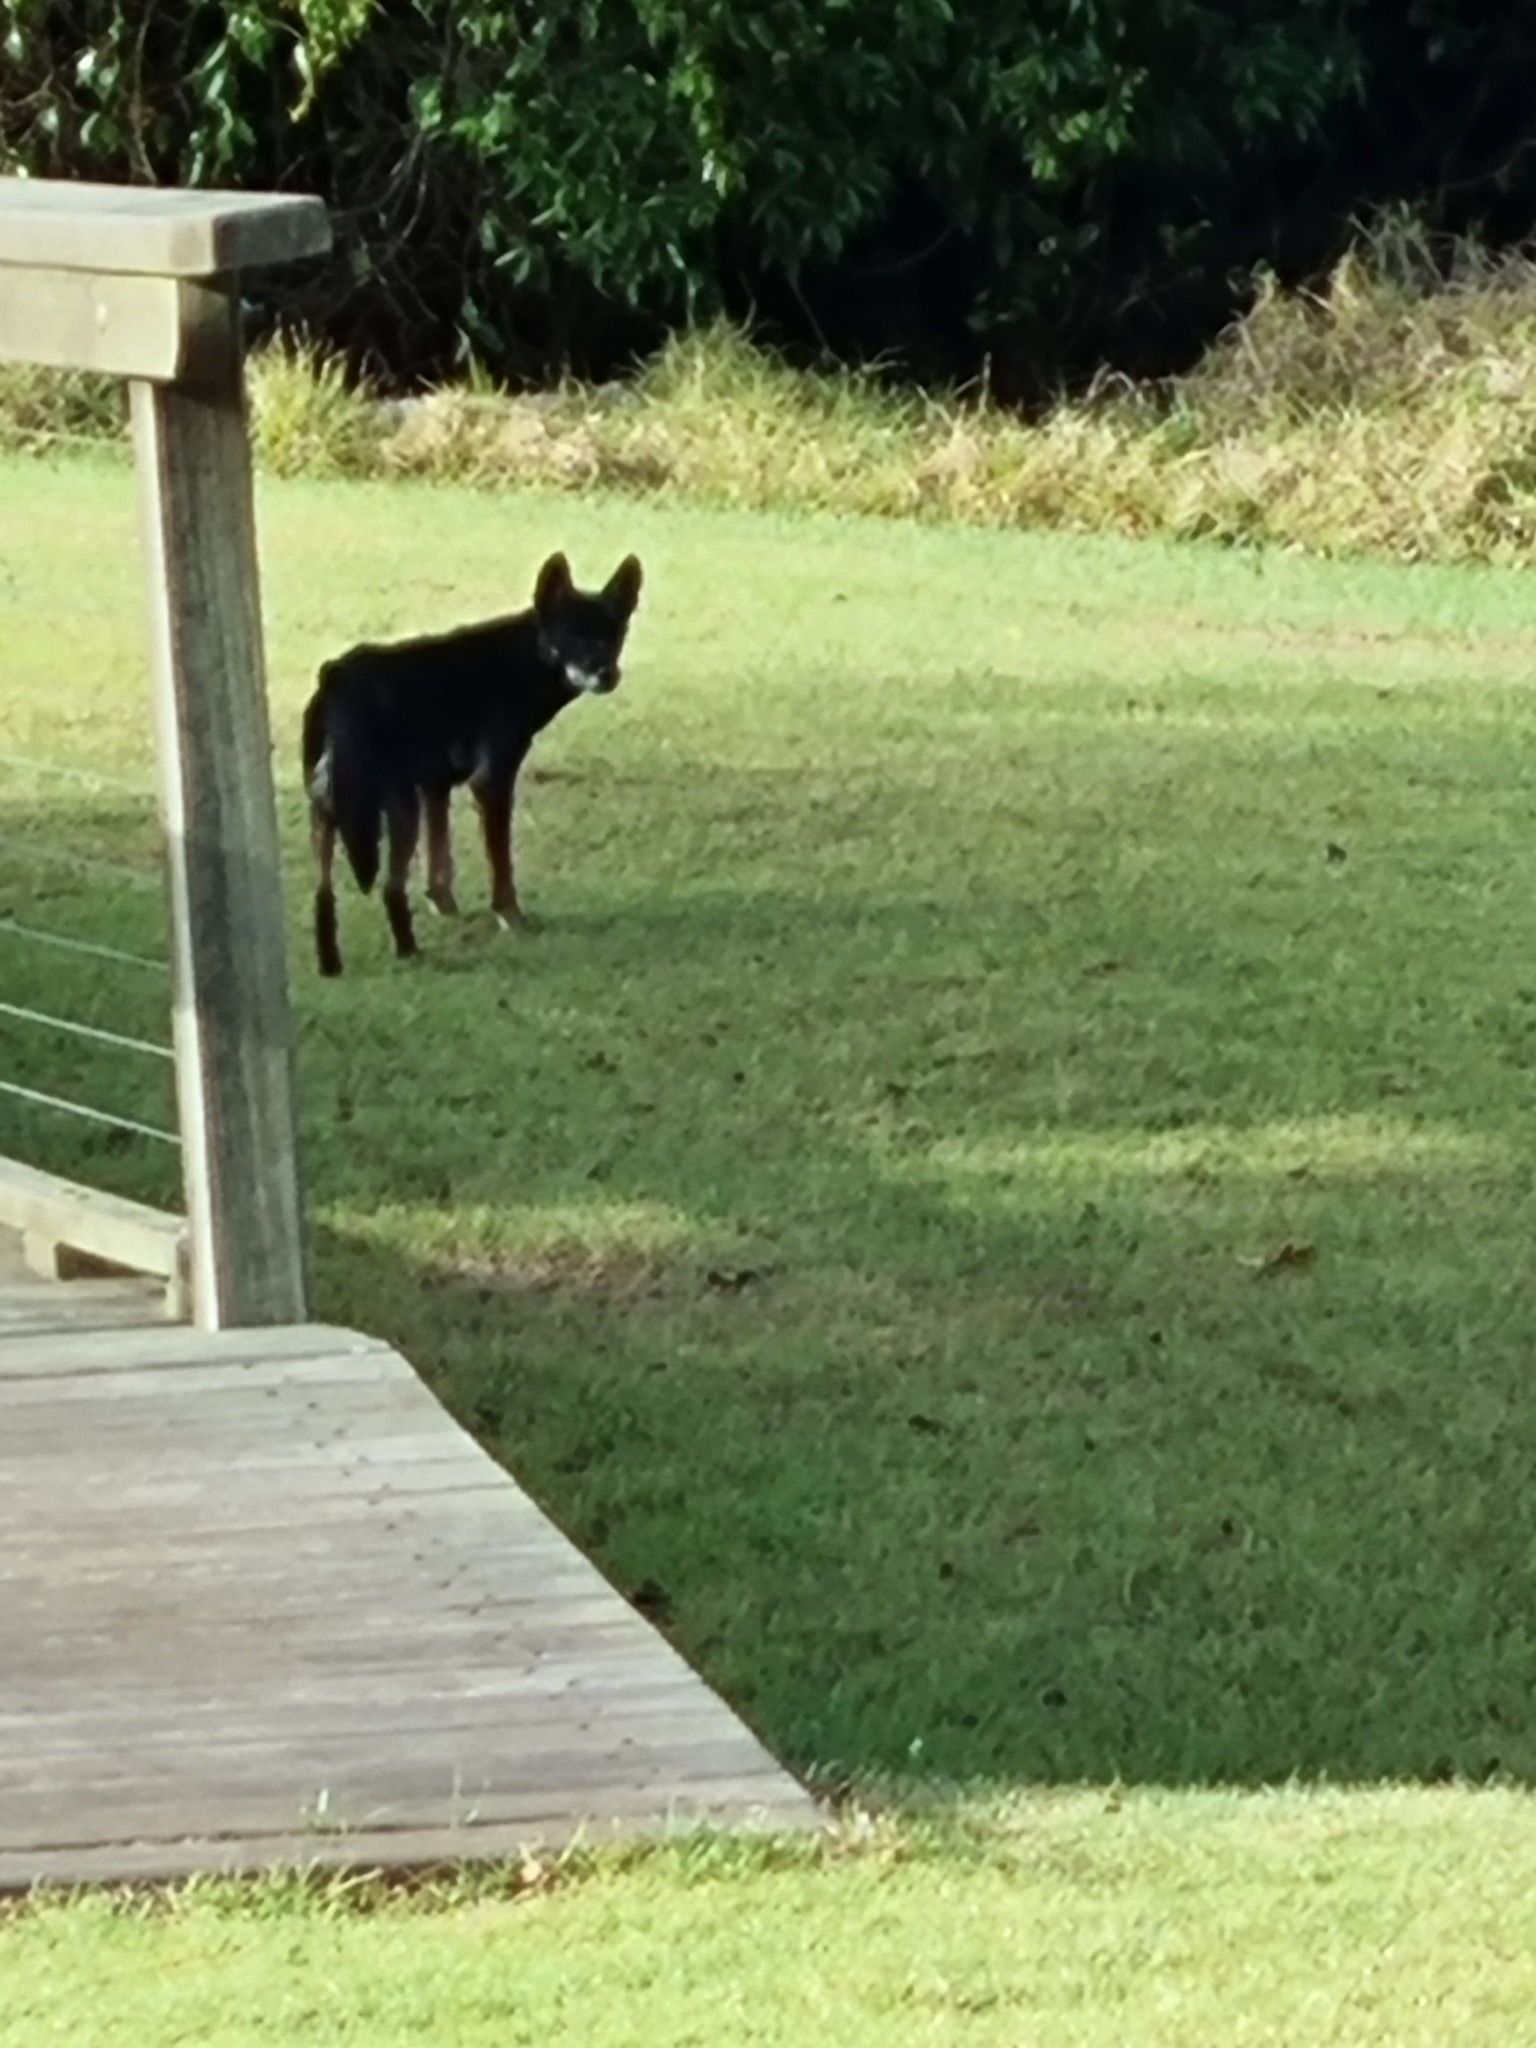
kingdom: Animalia
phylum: Chordata
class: Mammalia
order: Carnivora
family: Canidae
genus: Canis
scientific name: Canis lupus
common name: Gray wolf
